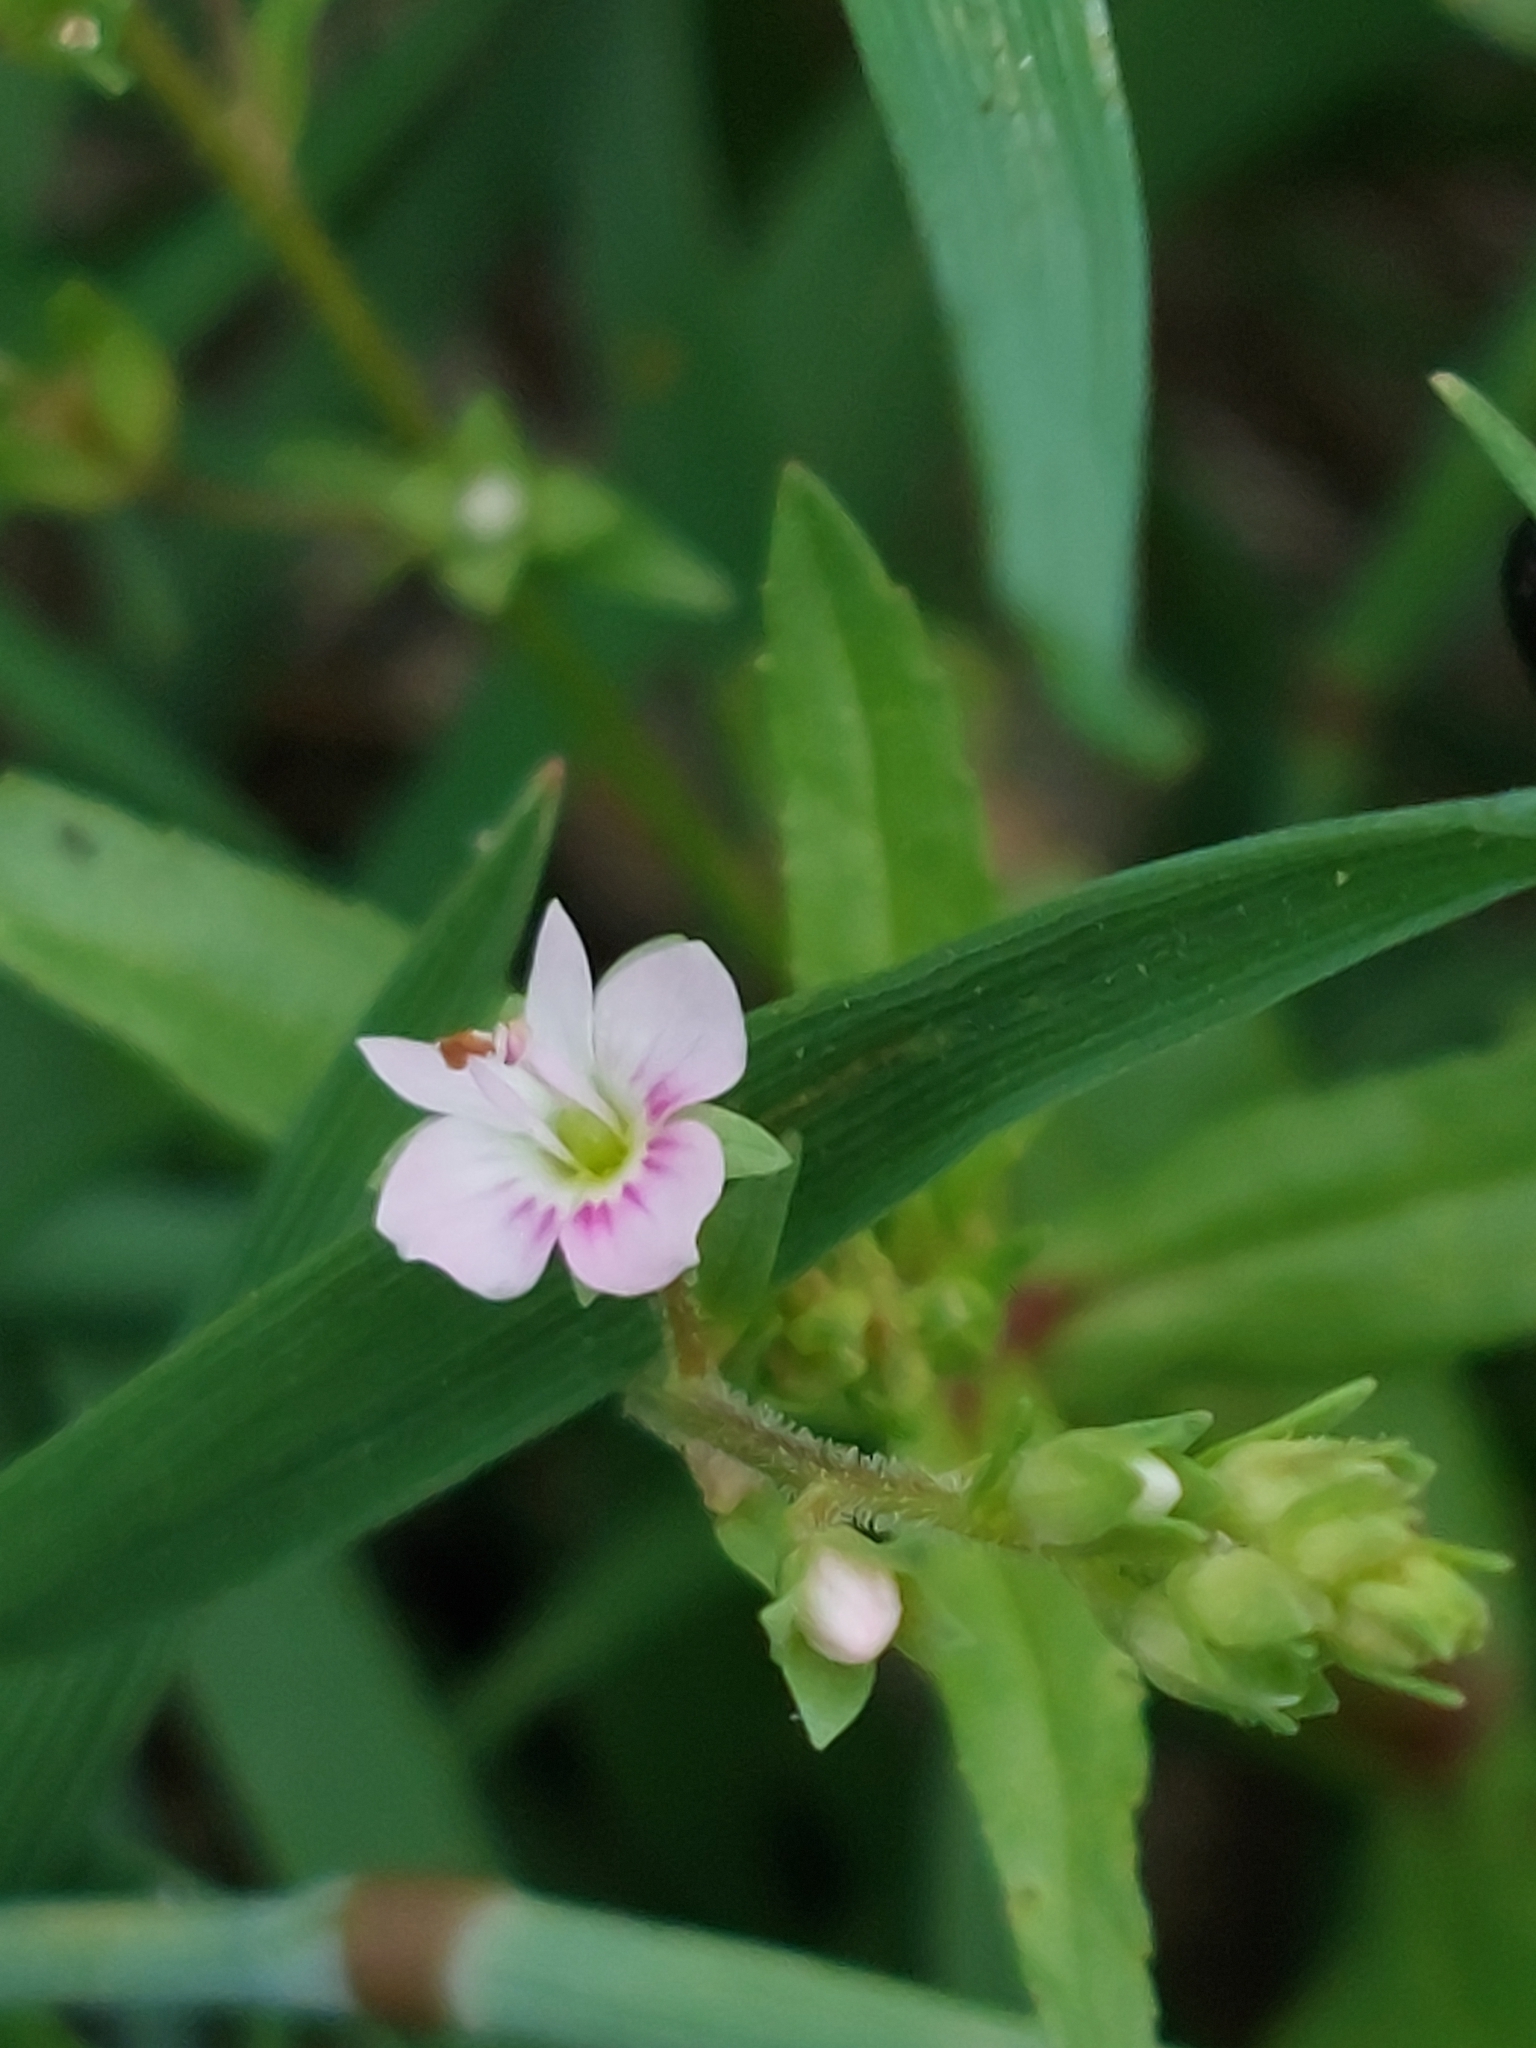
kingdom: Plantae
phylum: Tracheophyta
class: Magnoliopsida
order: Lamiales
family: Plantaginaceae
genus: Veronica
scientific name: Veronica catenata
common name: Pink water-speedwell
